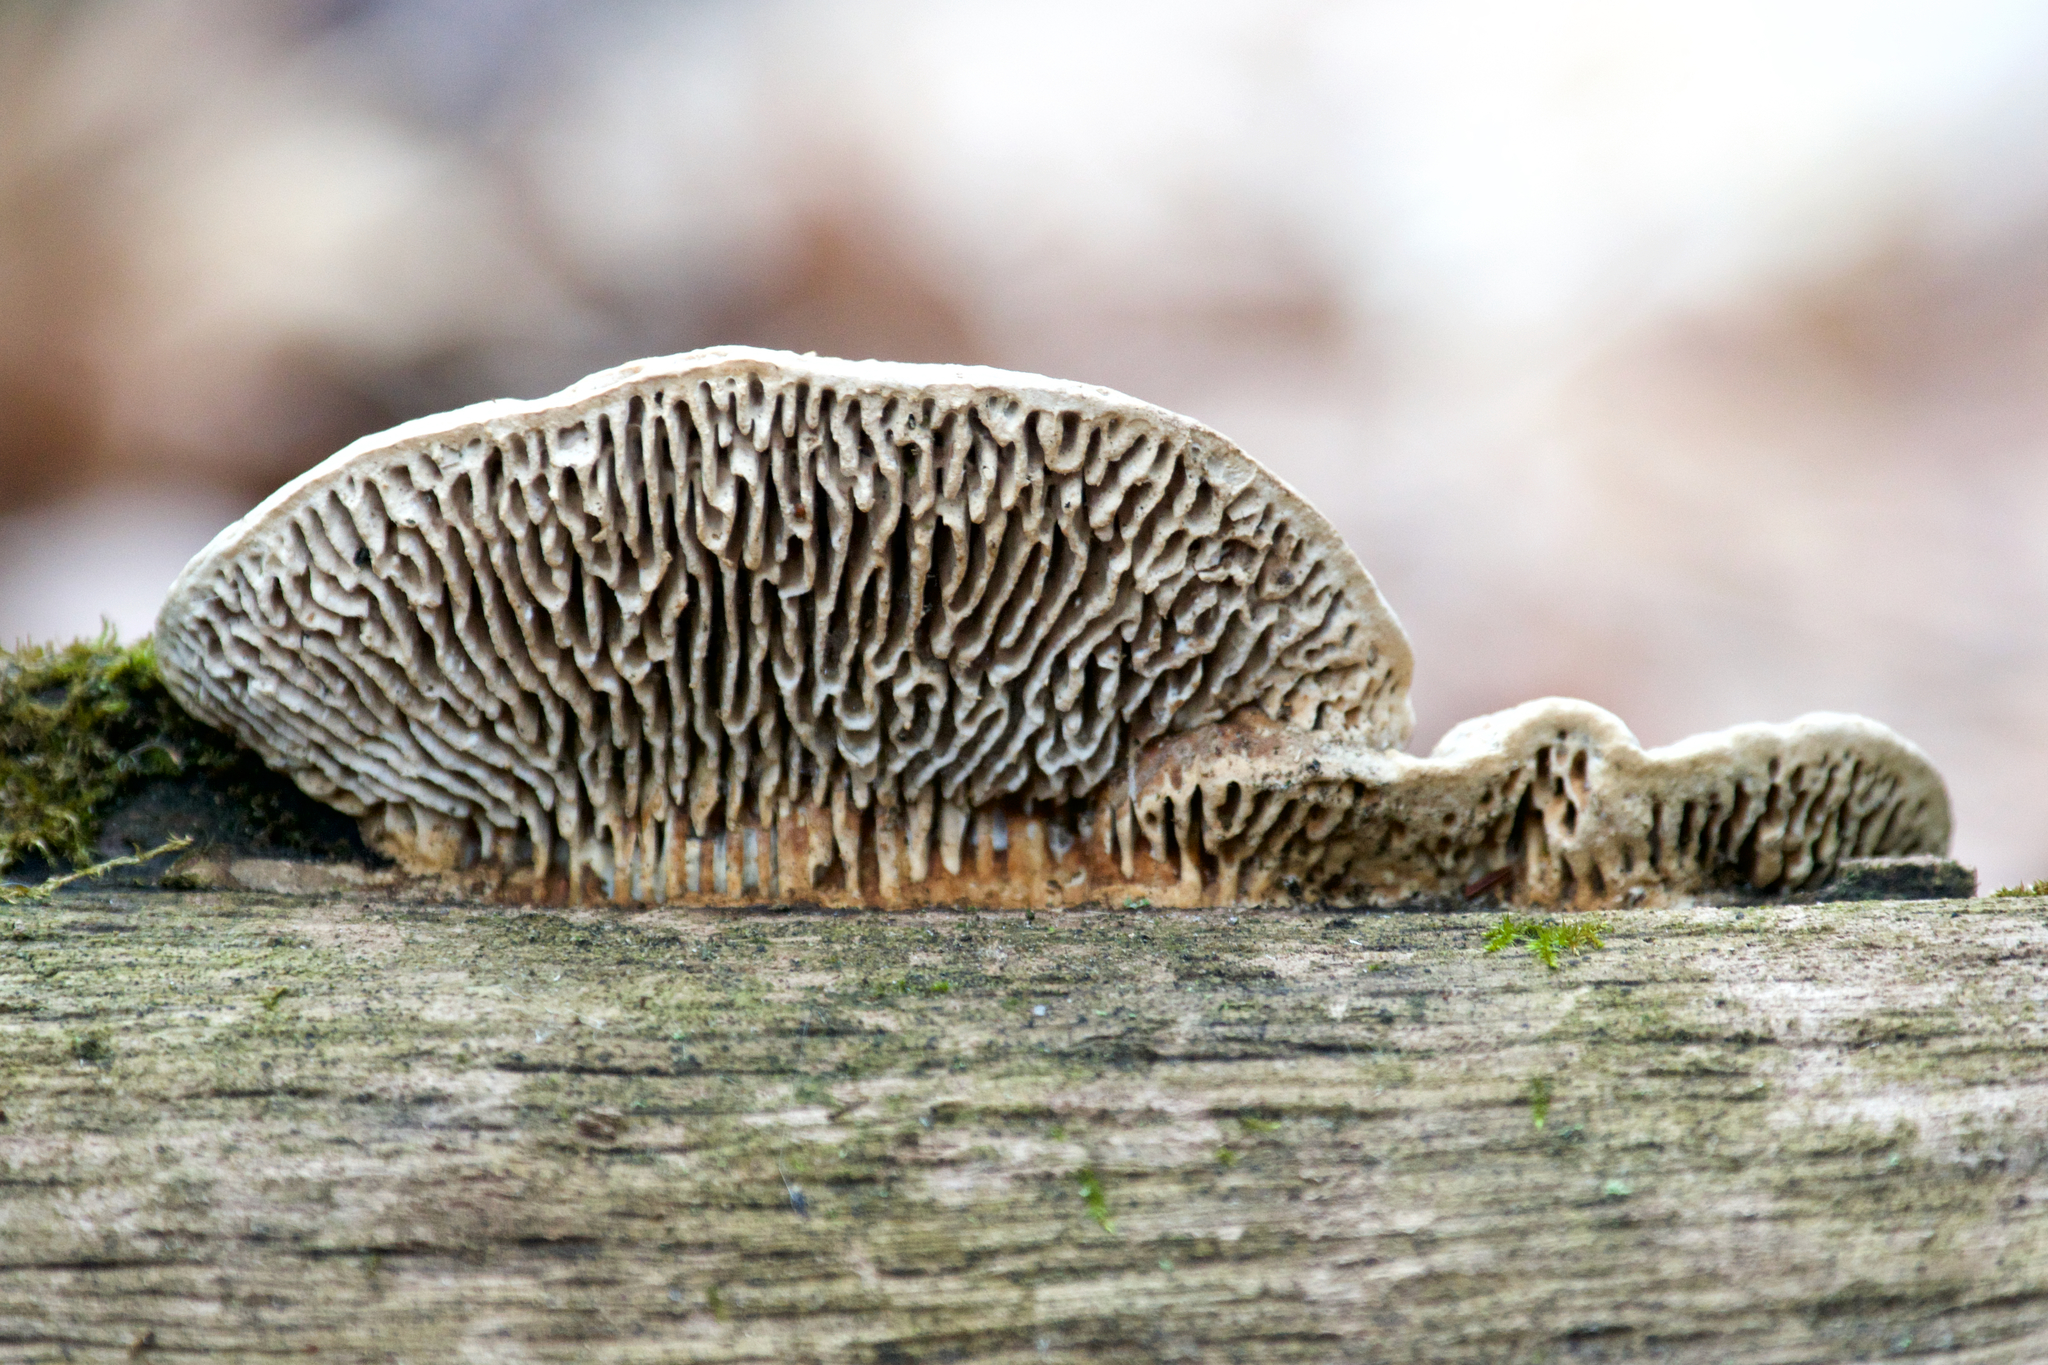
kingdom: Fungi
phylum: Basidiomycota
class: Agaricomycetes
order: Polyporales
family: Fomitopsidaceae
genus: Fomitopsis
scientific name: Fomitopsis
